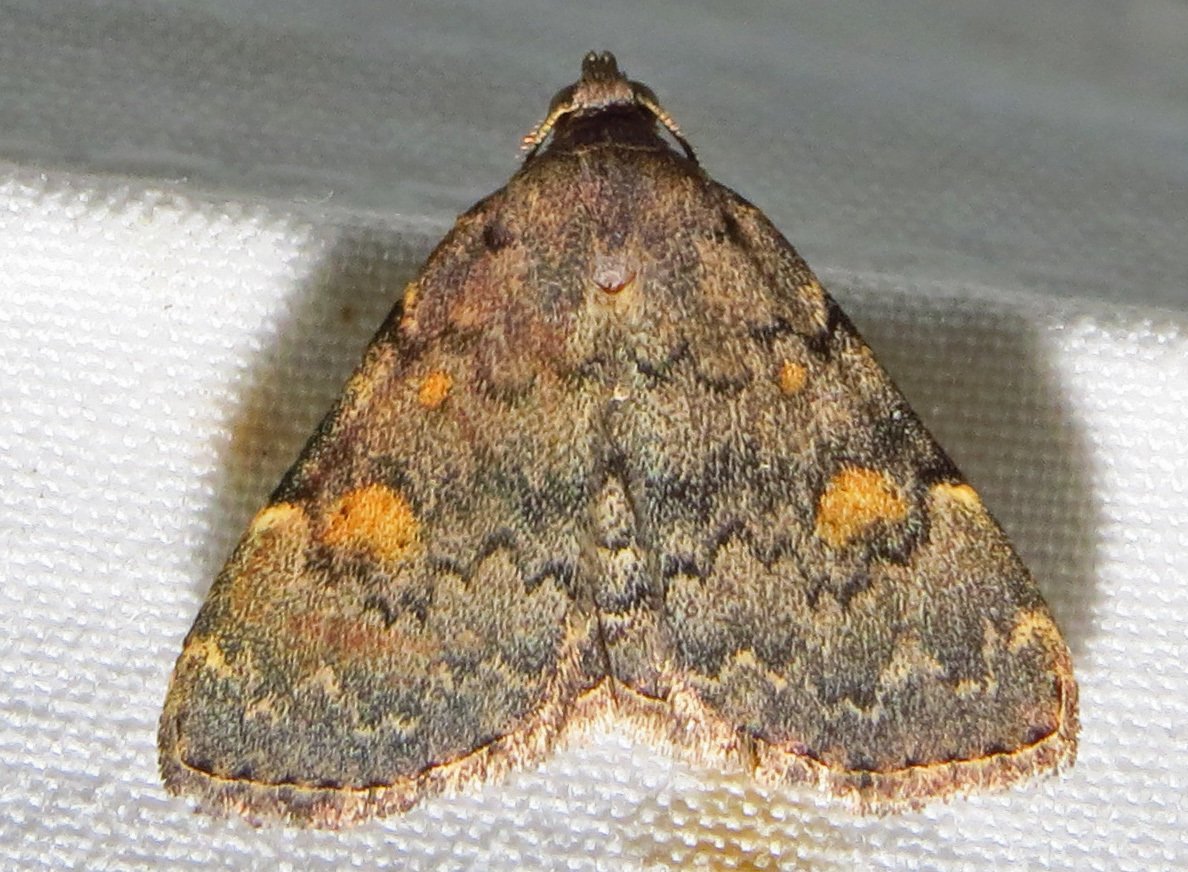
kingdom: Animalia
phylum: Arthropoda
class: Insecta
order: Lepidoptera
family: Erebidae
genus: Idia
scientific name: Idia aemula
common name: Common idia moth
